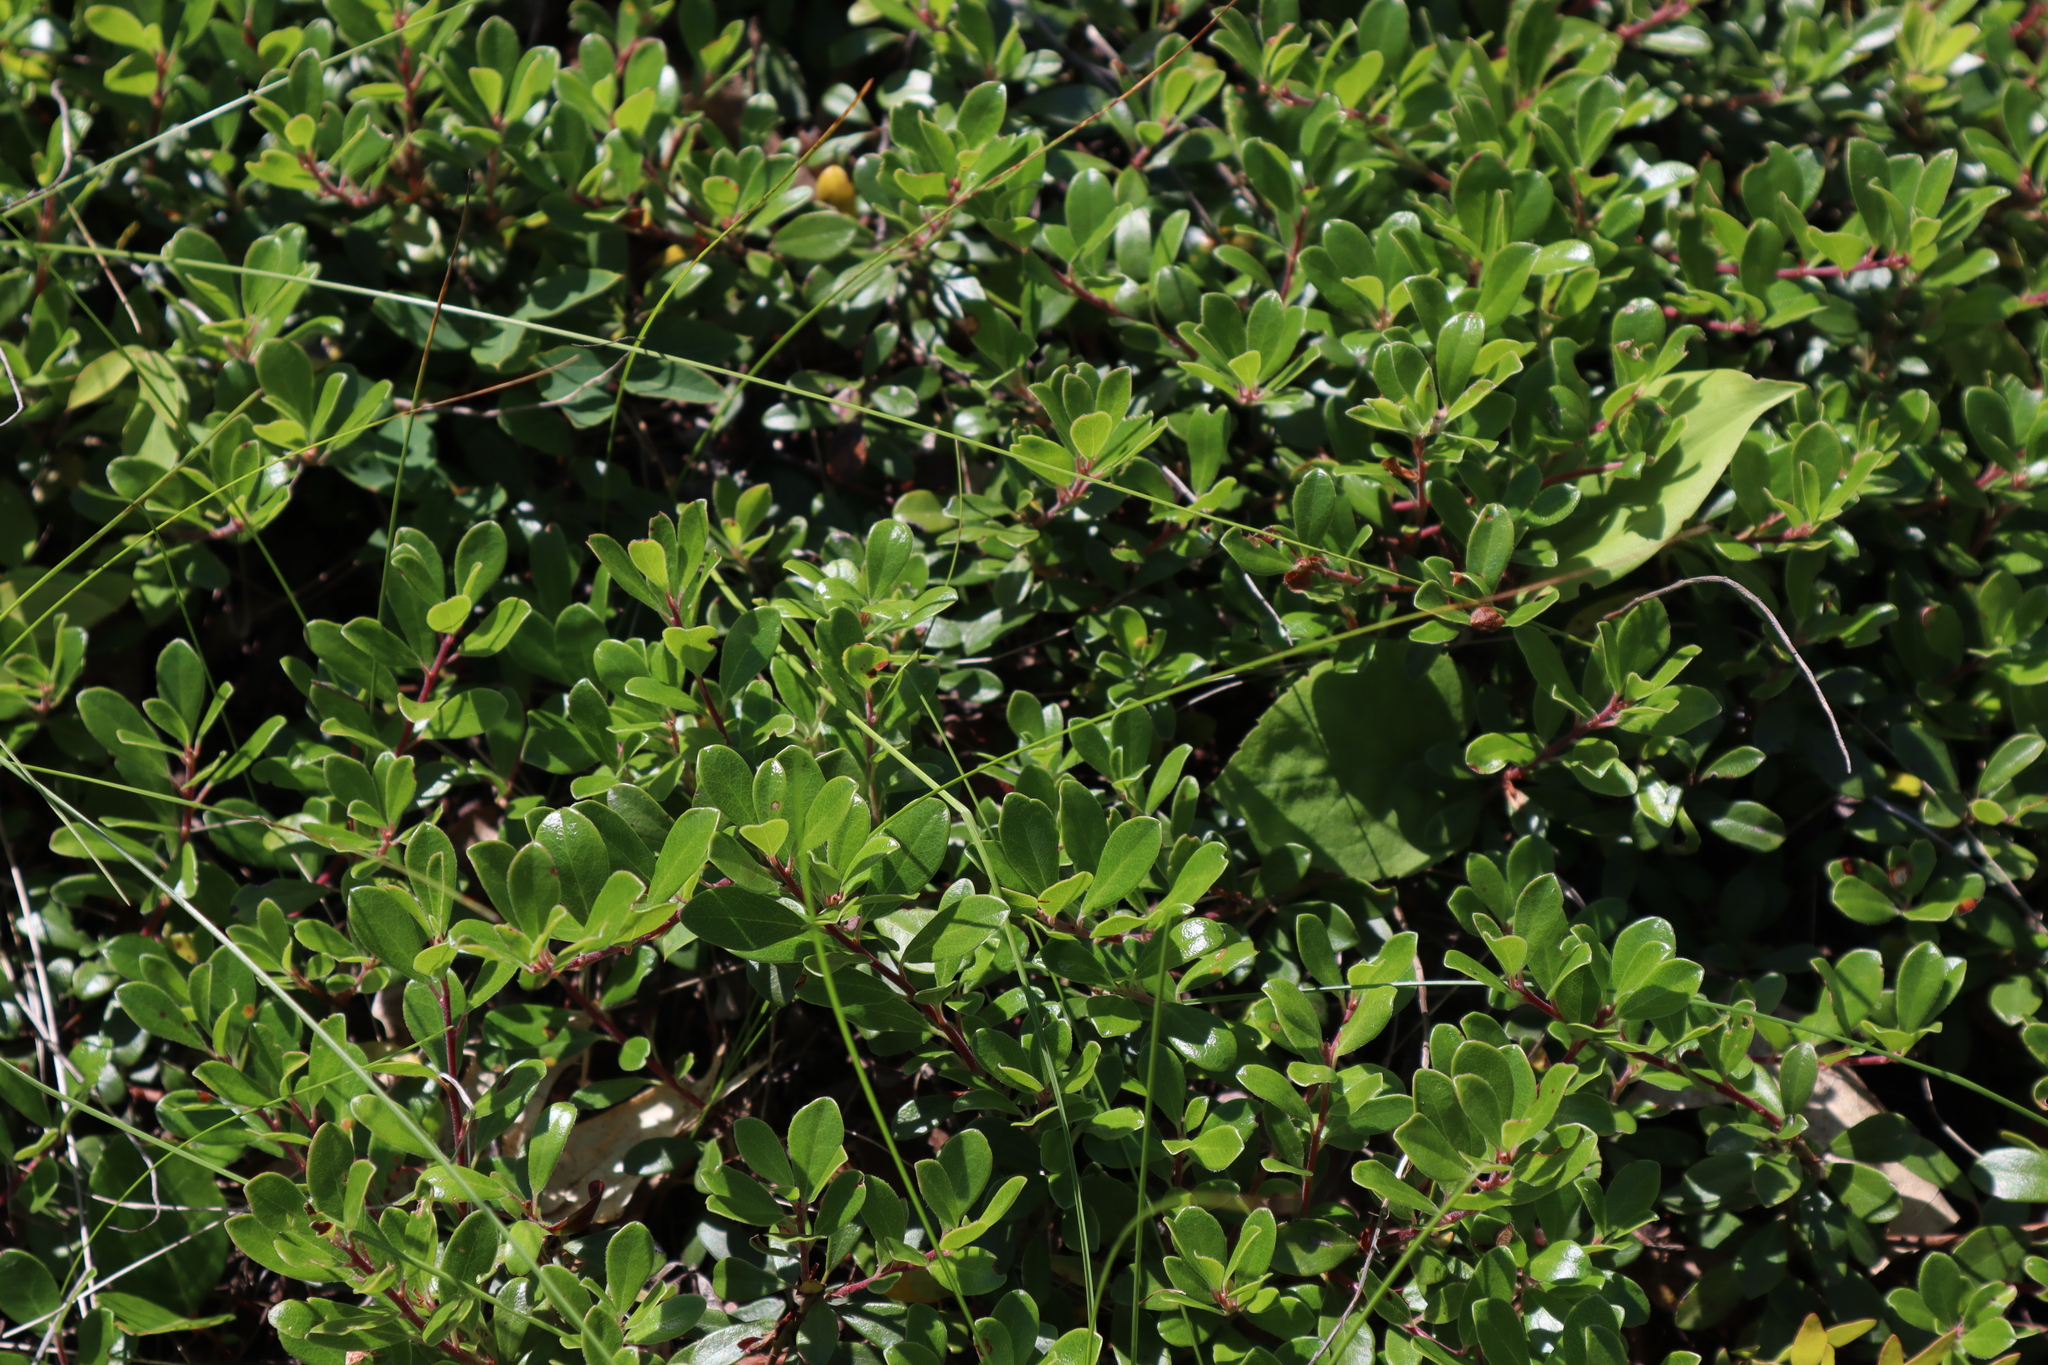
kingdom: Plantae
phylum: Tracheophyta
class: Magnoliopsida
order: Ericales
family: Ericaceae
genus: Arctostaphylos
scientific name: Arctostaphylos uva-ursi
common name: Bearberry
